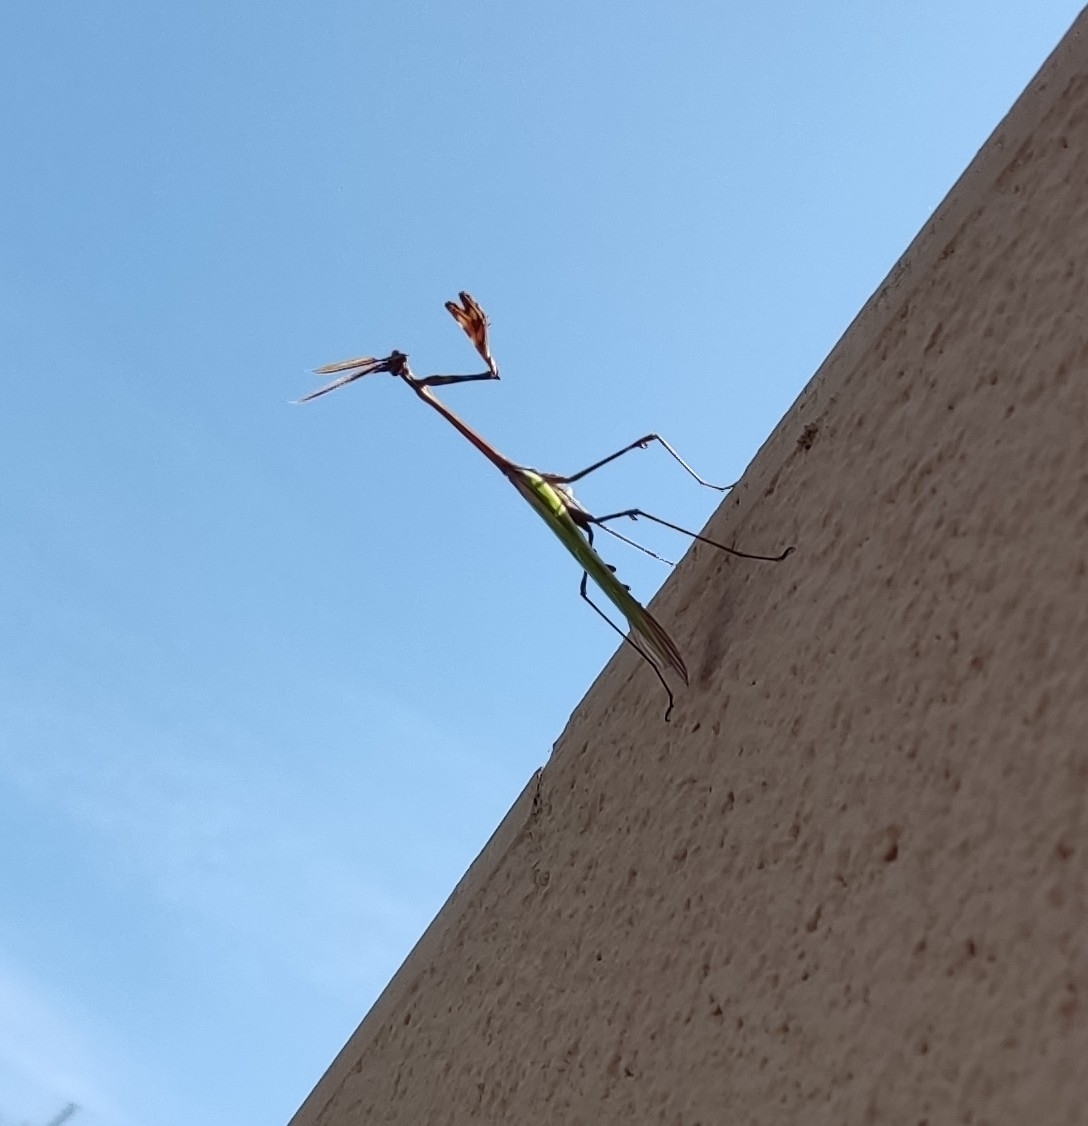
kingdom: Animalia
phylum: Arthropoda
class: Insecta
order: Mantodea
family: Empusidae
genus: Empusa
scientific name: Empusa pennata
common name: Conehead mantis
